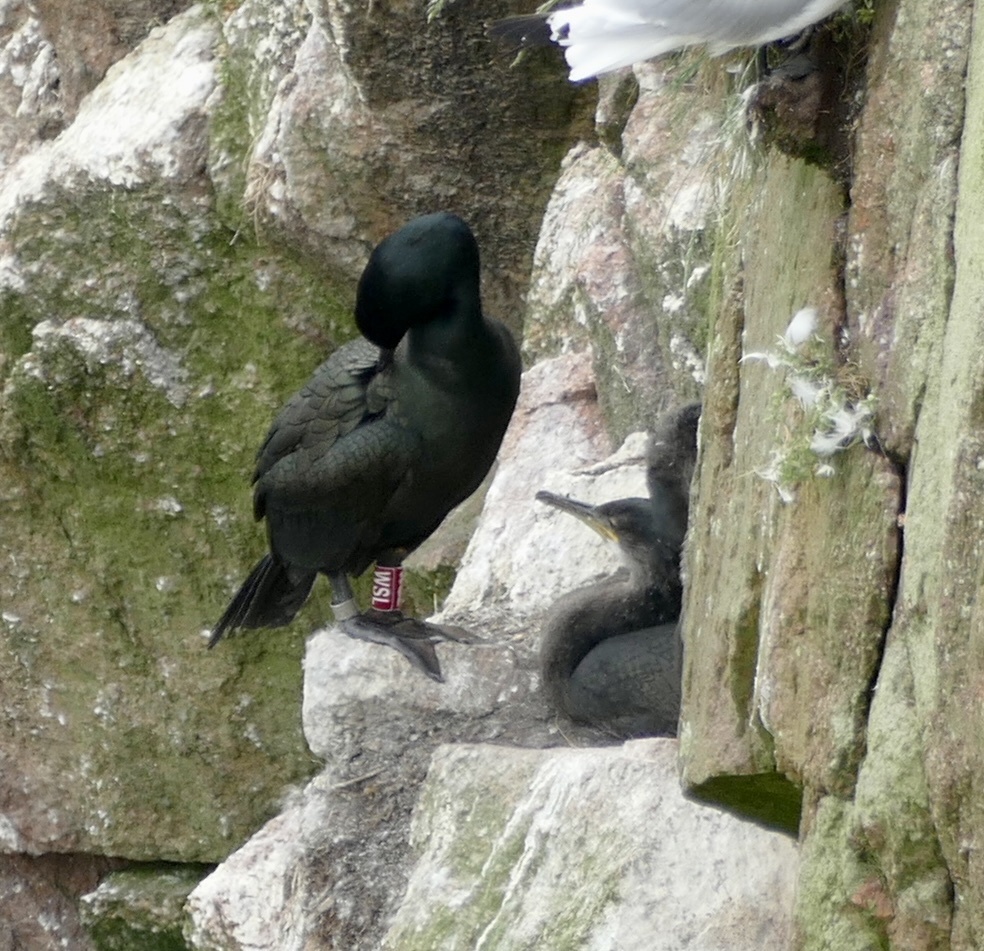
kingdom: Animalia
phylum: Chordata
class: Aves
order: Suliformes
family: Phalacrocoracidae
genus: Phalacrocorax
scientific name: Phalacrocorax aristotelis
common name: European shag
